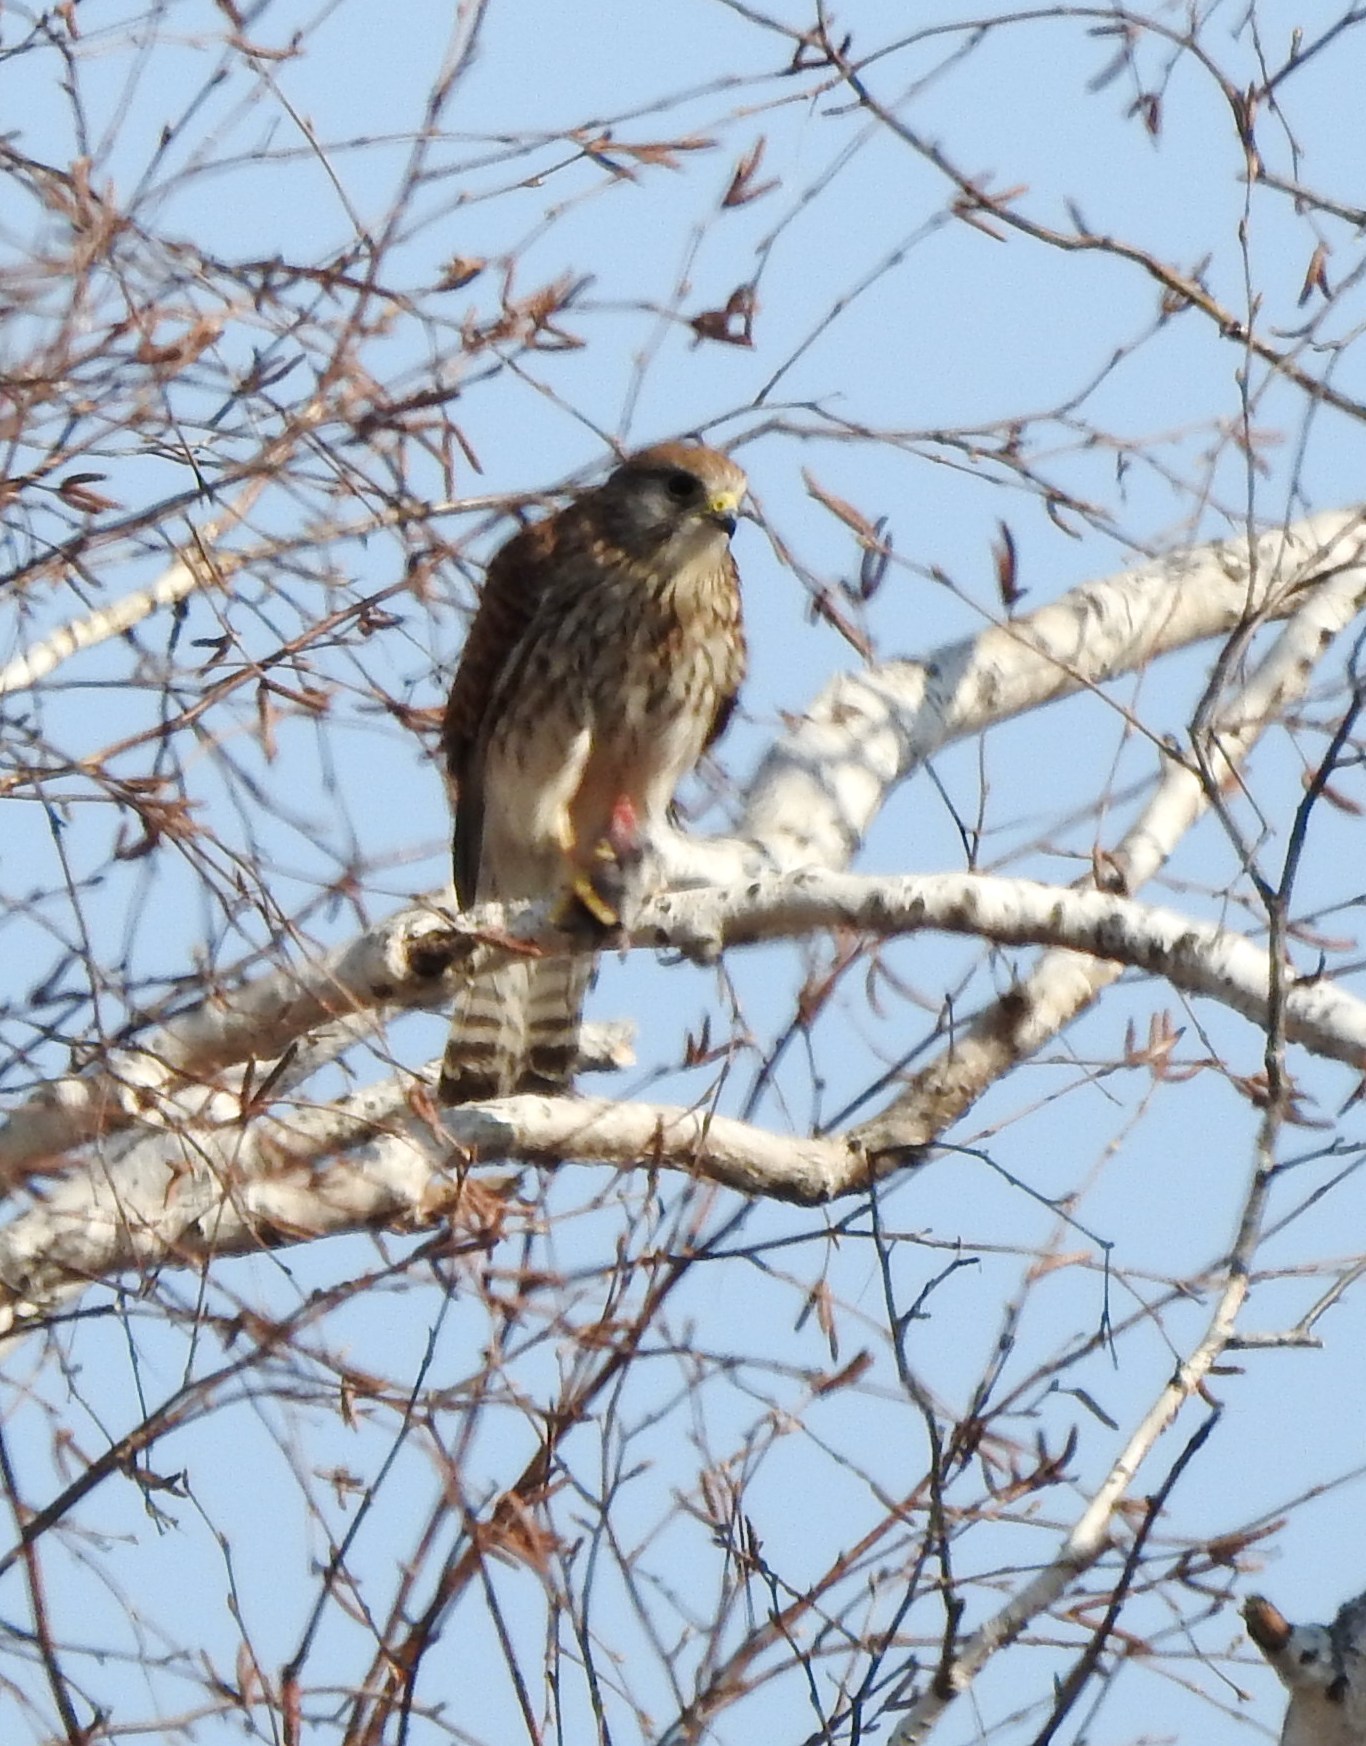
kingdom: Animalia
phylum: Chordata
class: Aves
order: Falconiformes
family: Falconidae
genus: Falco
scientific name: Falco tinnunculus
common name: Common kestrel
